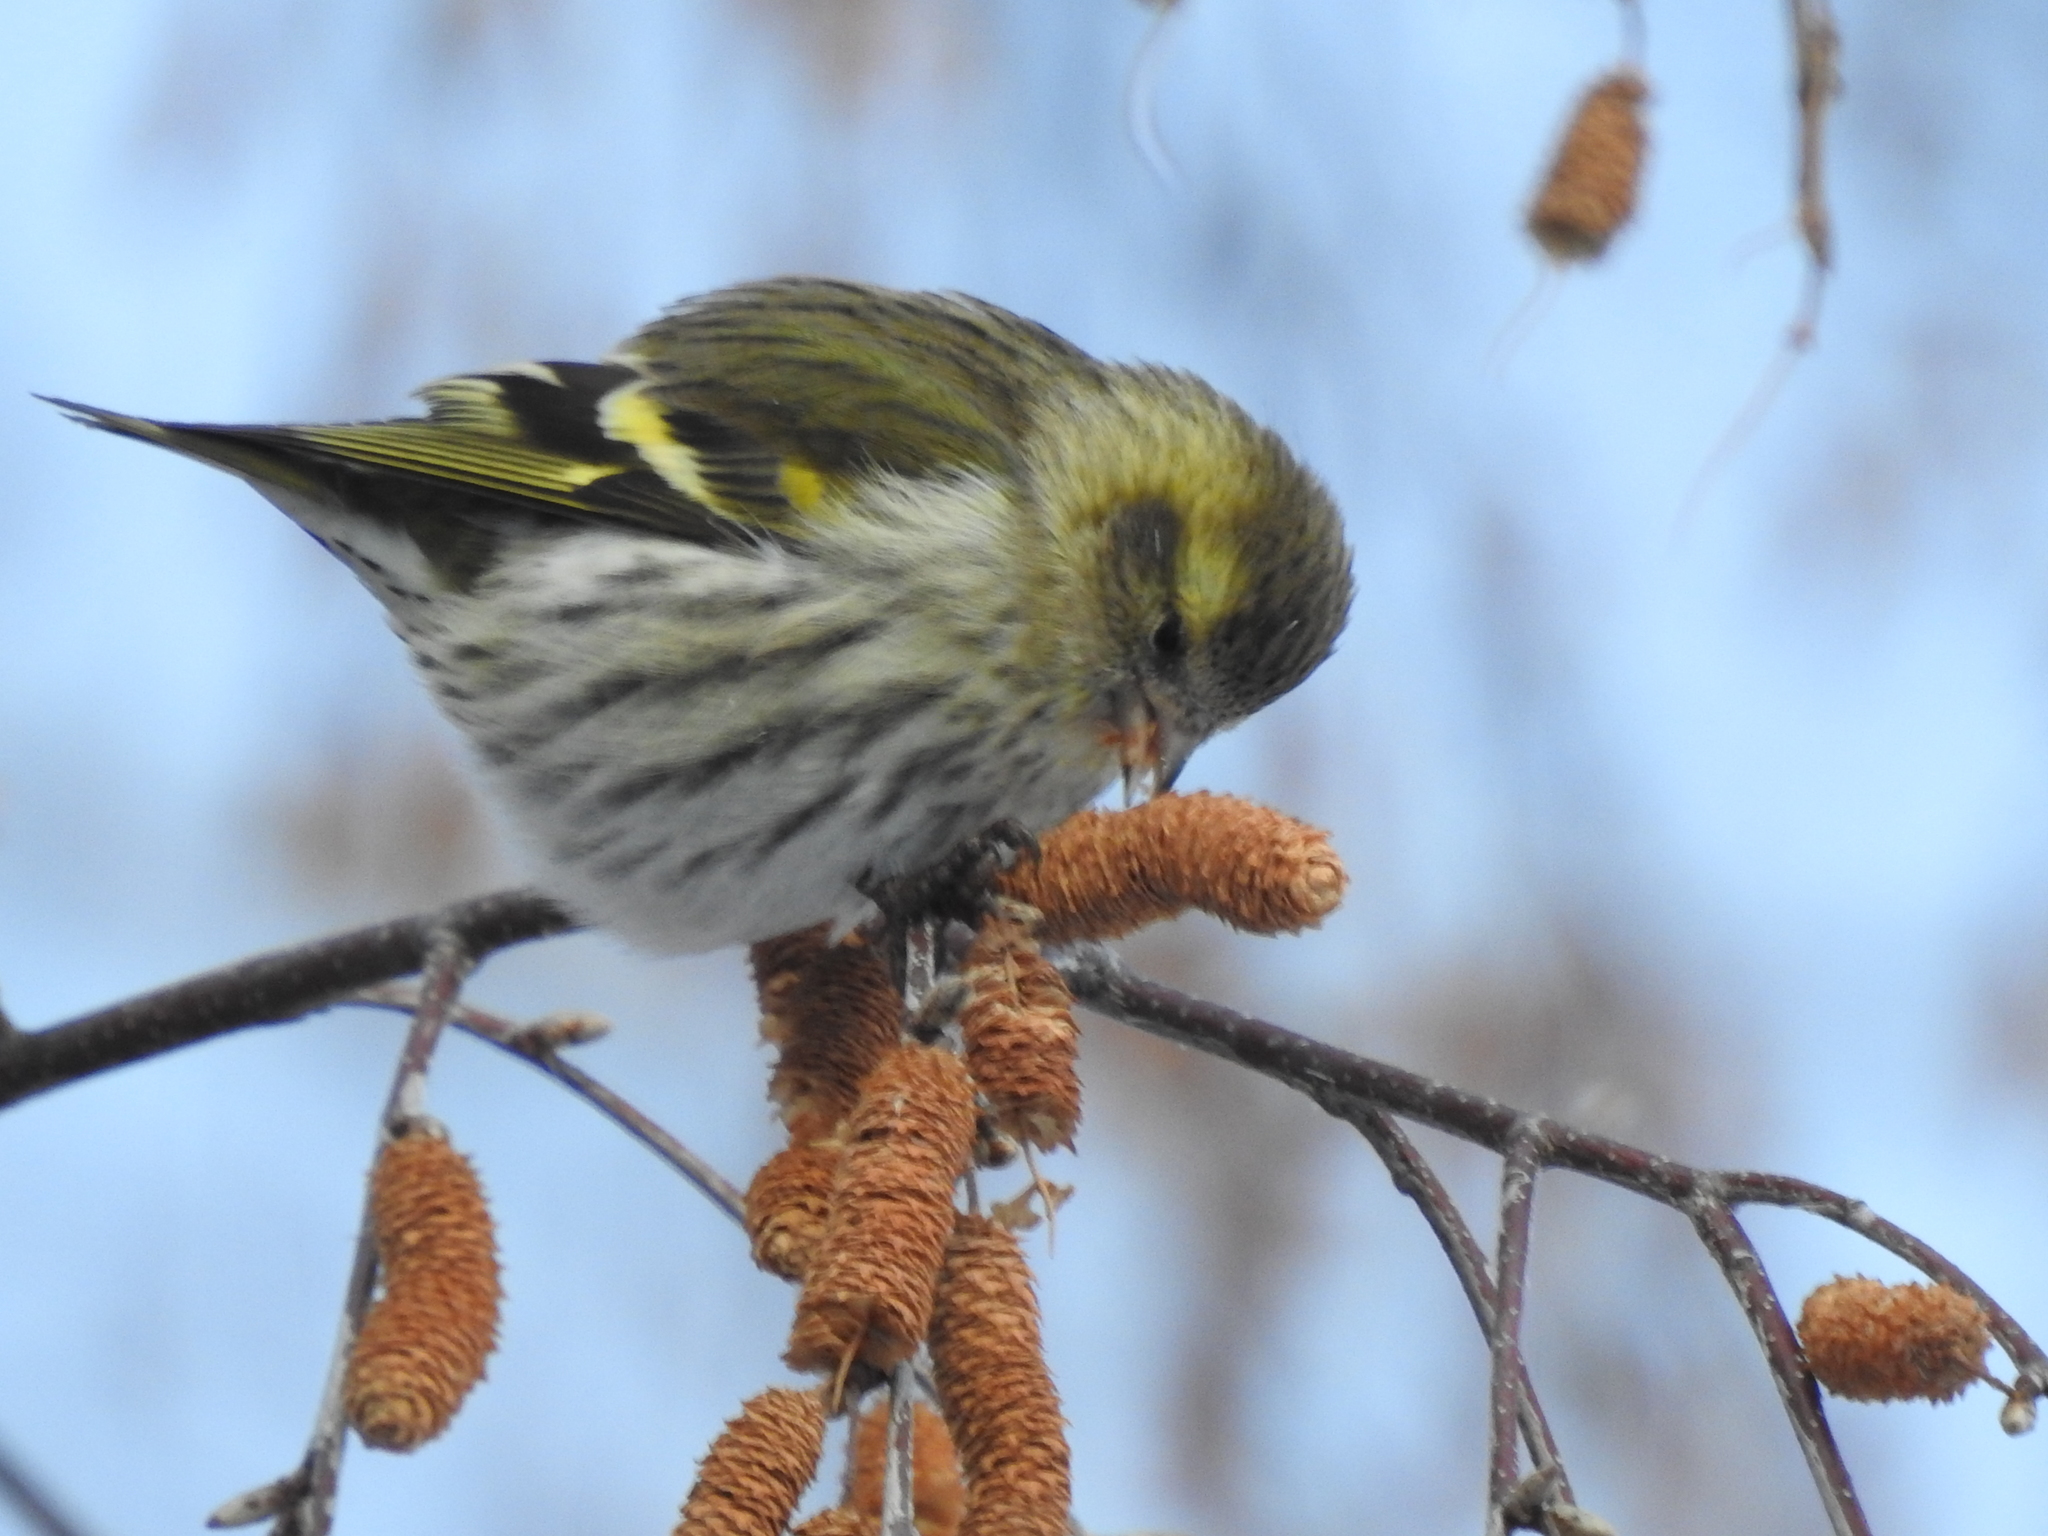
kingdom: Animalia
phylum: Chordata
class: Aves
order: Passeriformes
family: Fringillidae
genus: Spinus
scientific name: Spinus spinus
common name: Eurasian siskin
